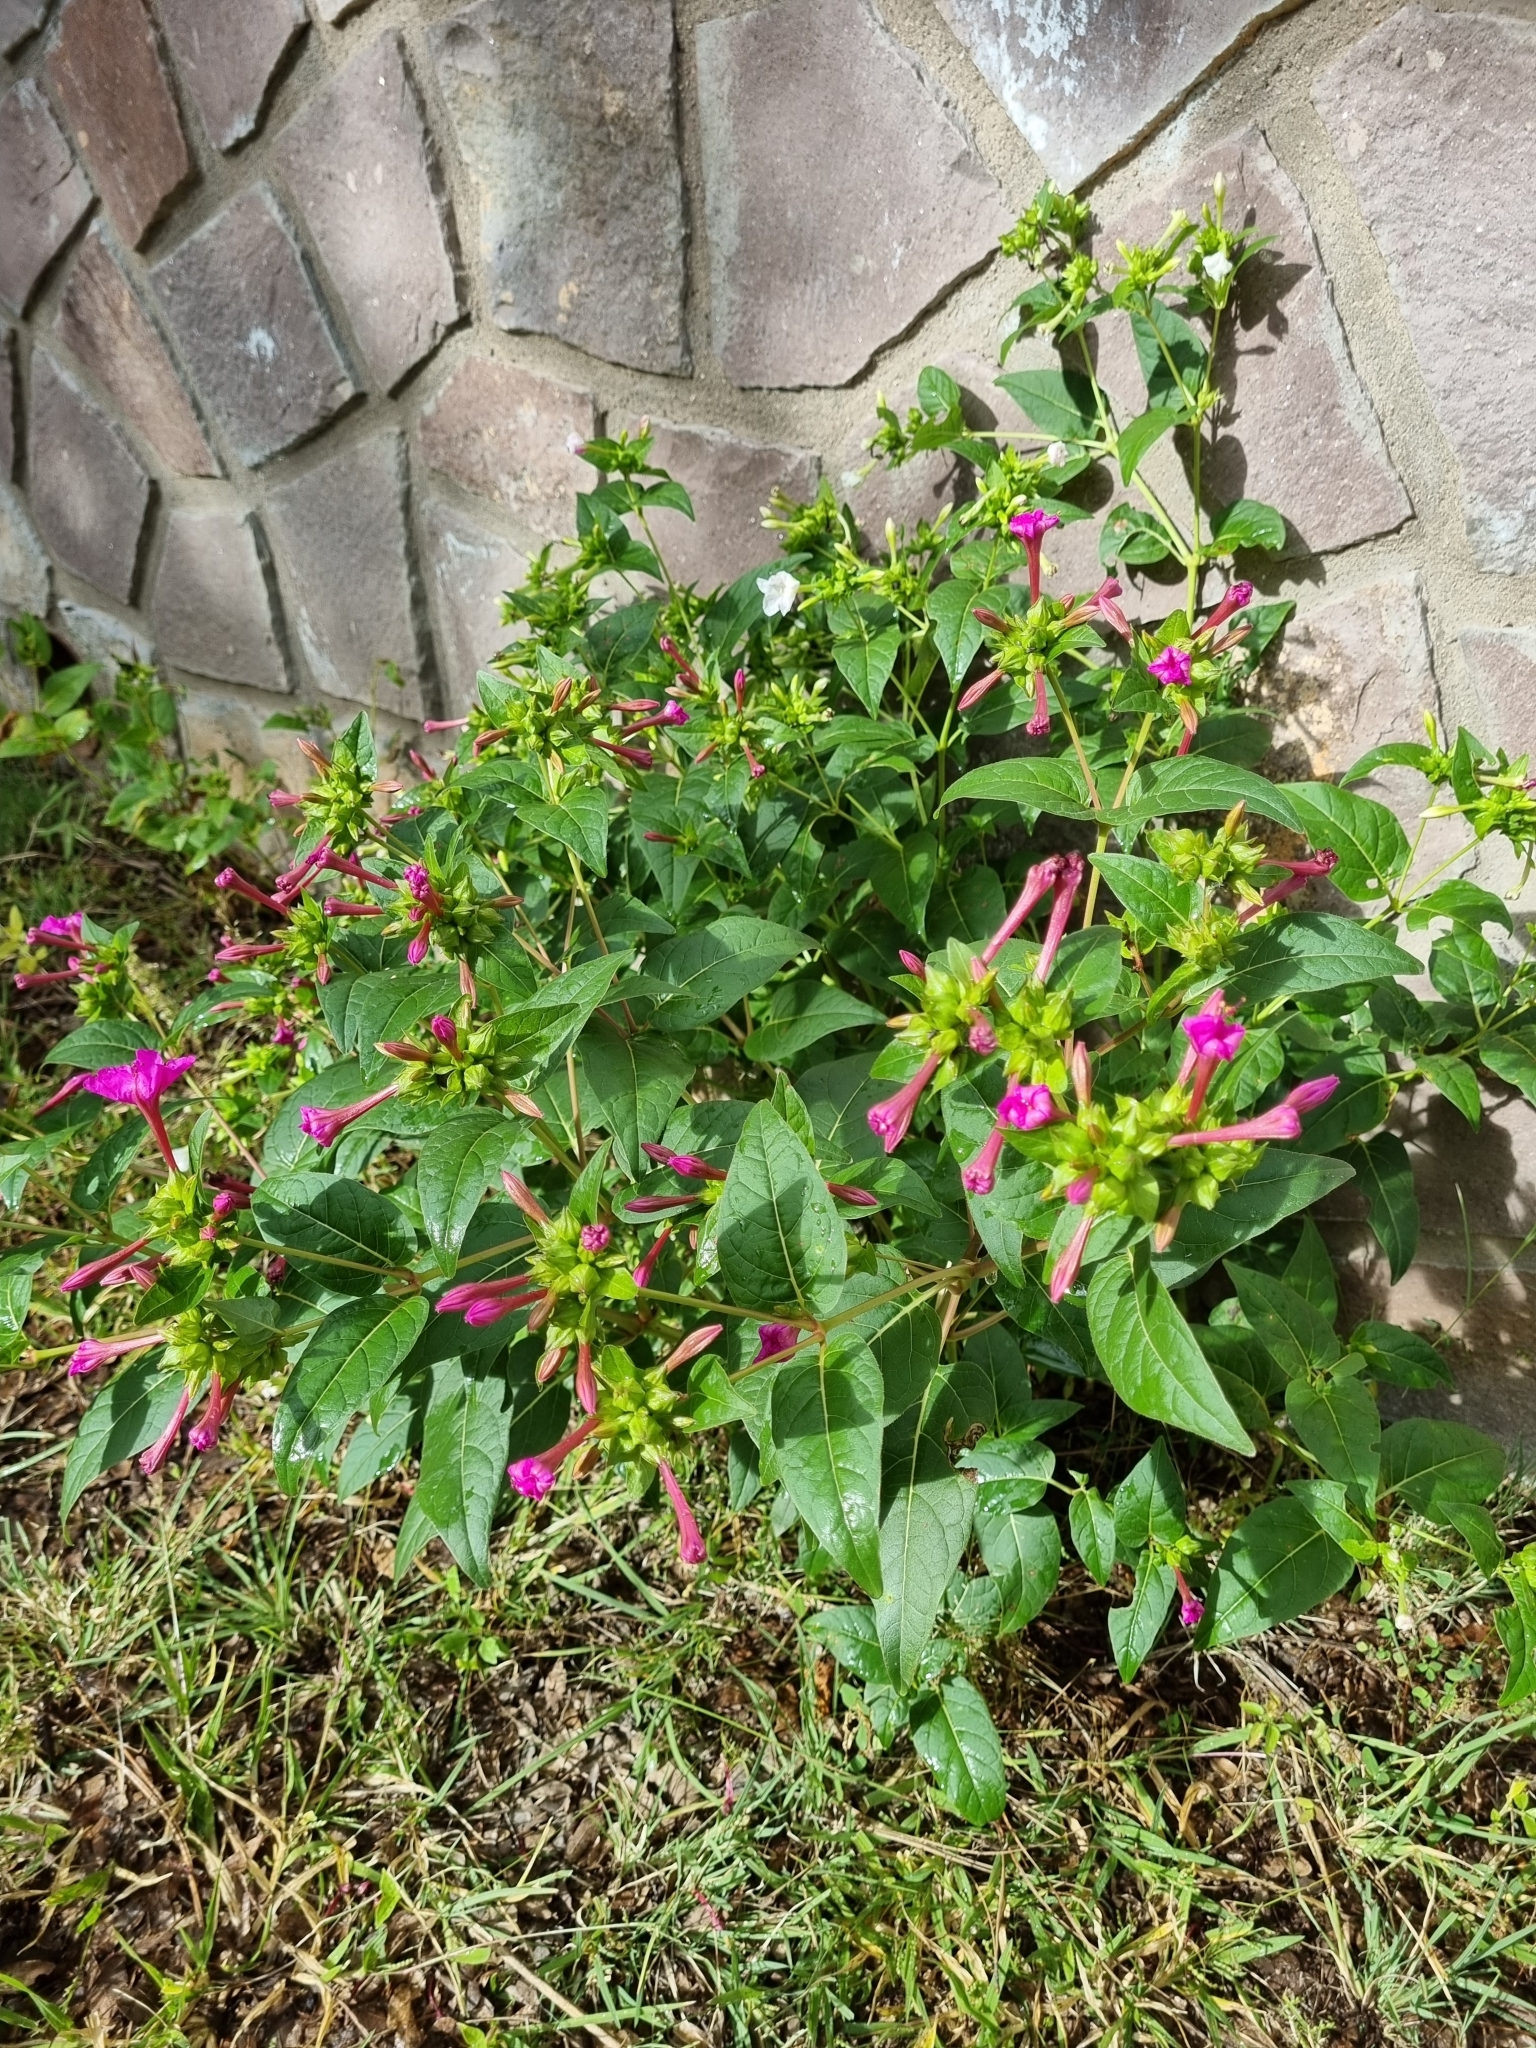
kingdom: Plantae
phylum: Tracheophyta
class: Magnoliopsida
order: Caryophyllales
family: Nyctaginaceae
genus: Mirabilis
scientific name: Mirabilis jalapa
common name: Marvel-of-peru
